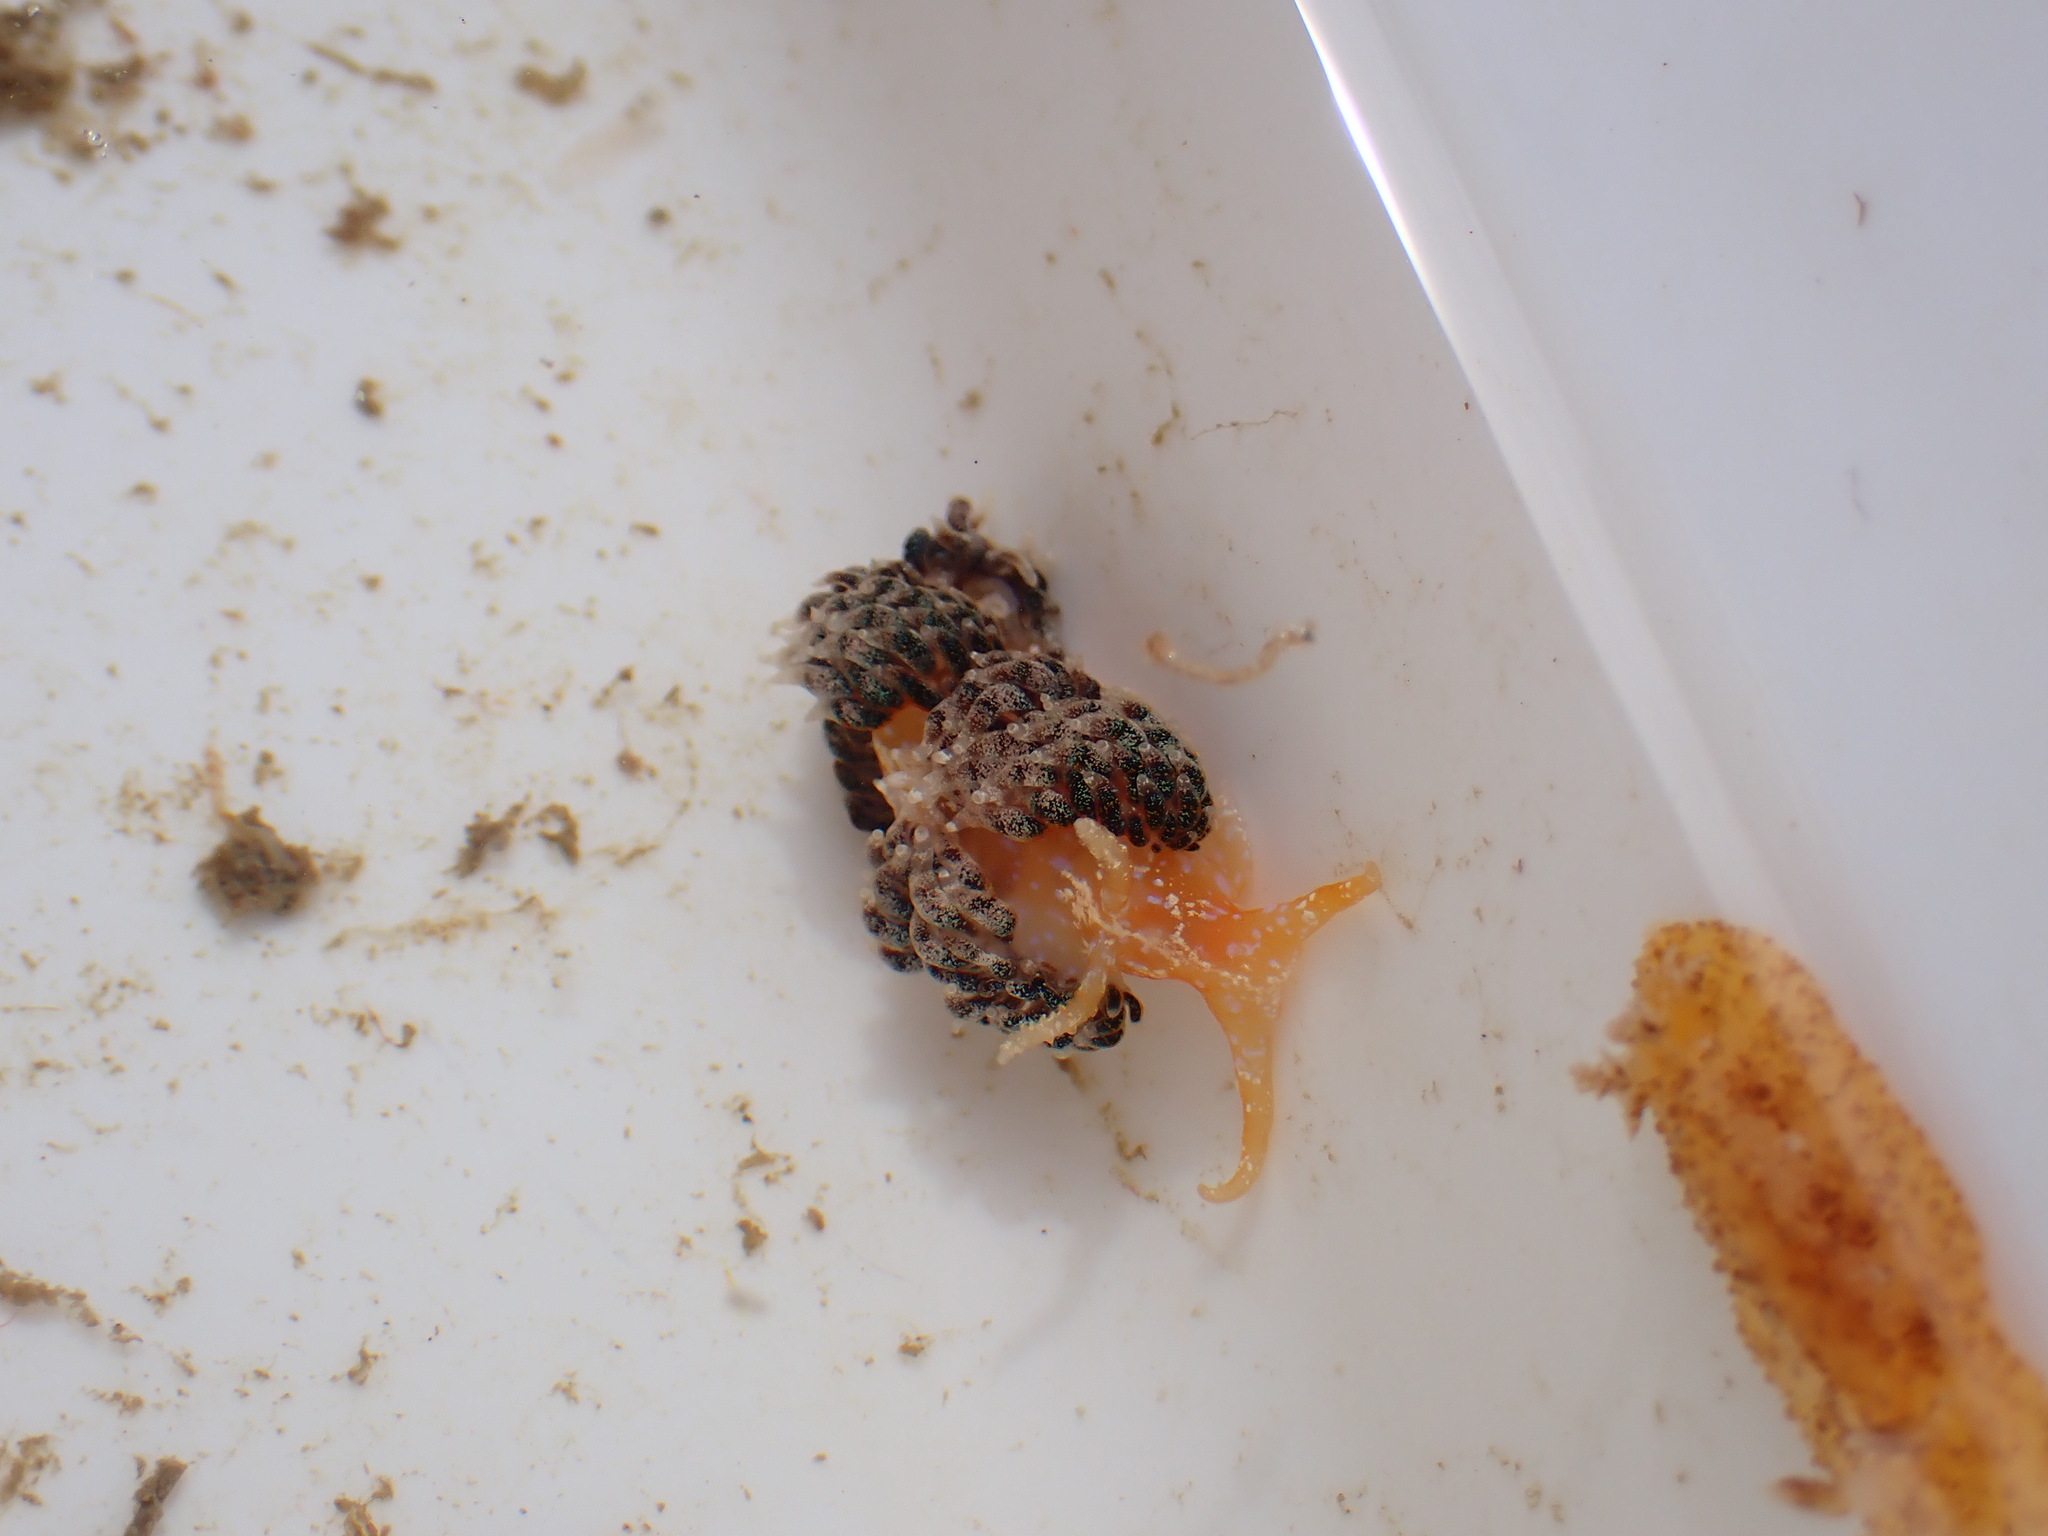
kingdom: Animalia
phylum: Mollusca
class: Gastropoda
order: Nudibranchia
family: Facelinidae
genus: Austraeolis
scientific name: Austraeolis ornata
